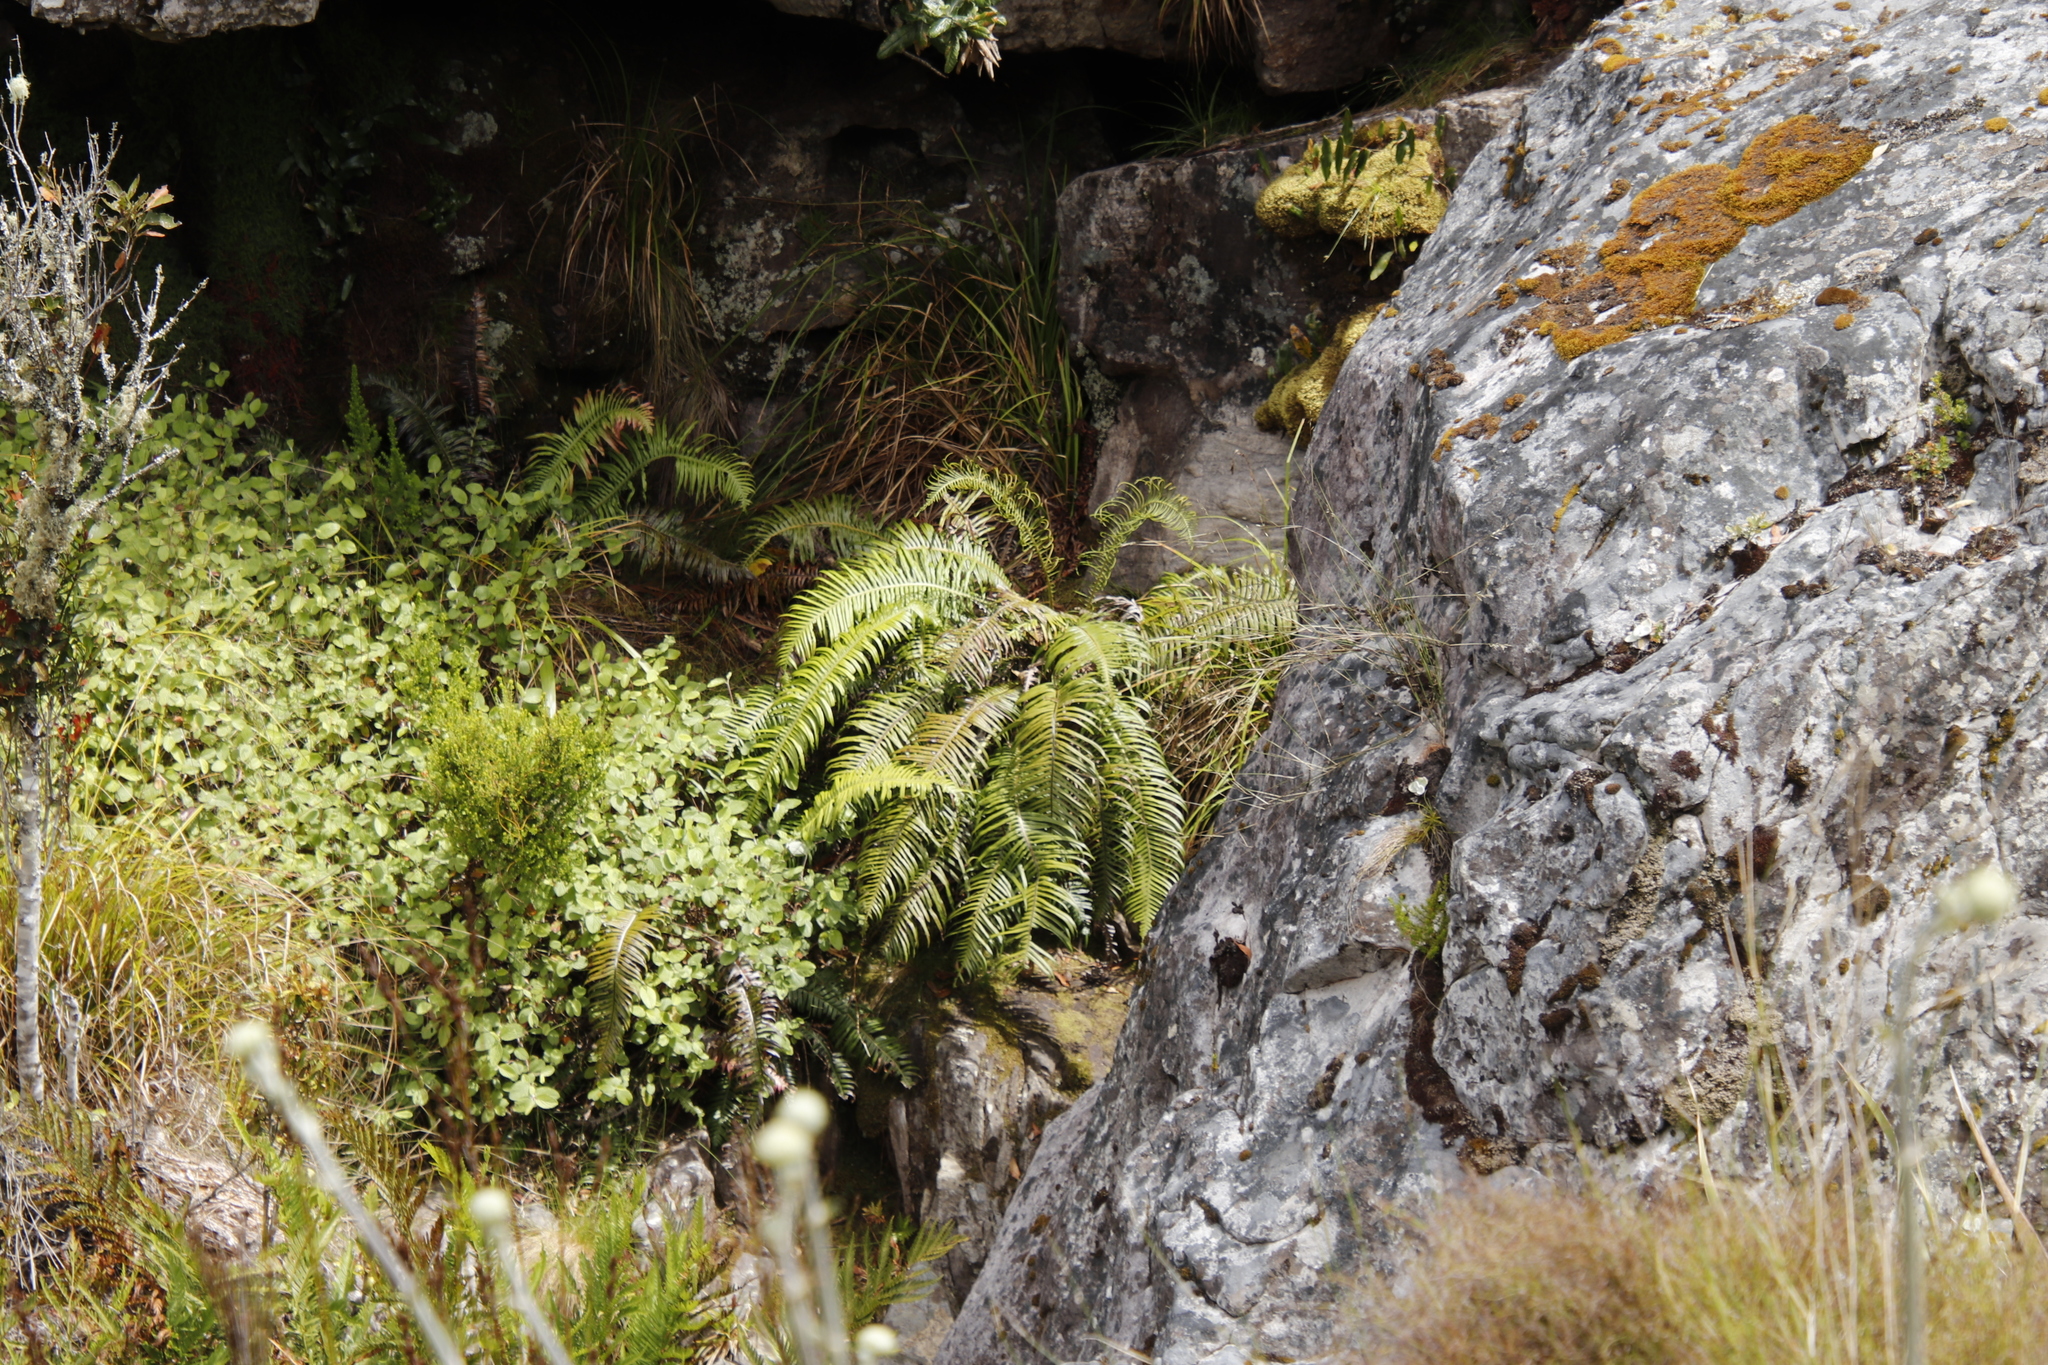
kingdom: Plantae
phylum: Tracheophyta
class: Polypodiopsida
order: Polypodiales
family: Blechnaceae
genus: Lomaridium
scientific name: Lomaridium attenuatum
